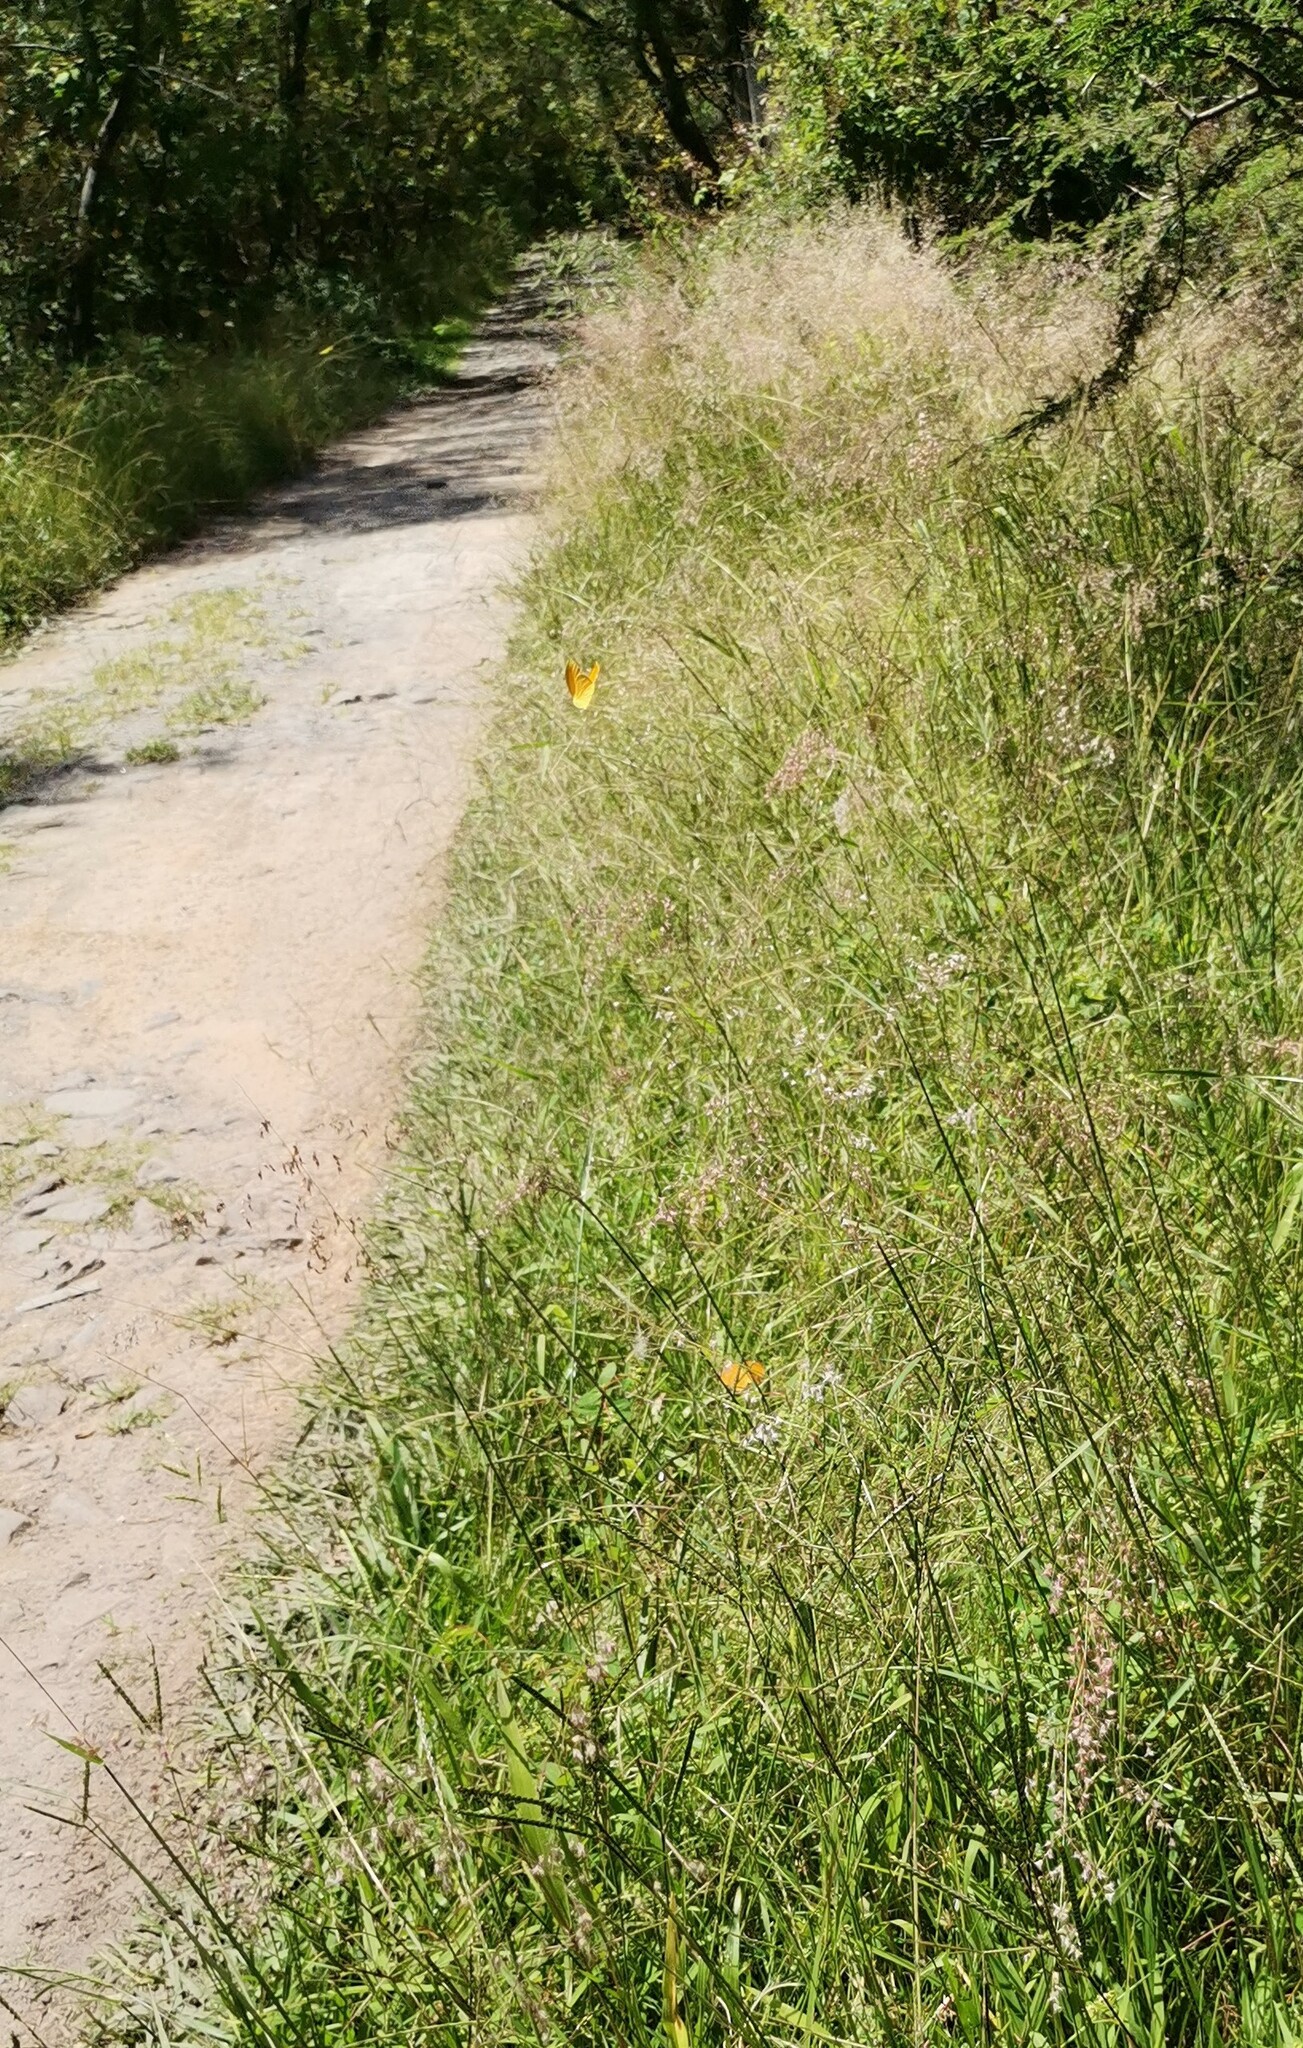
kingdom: Plantae
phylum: Tracheophyta
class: Liliopsida
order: Poales
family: Poaceae
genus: Melinis
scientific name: Melinis repens
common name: Rose natal grass
